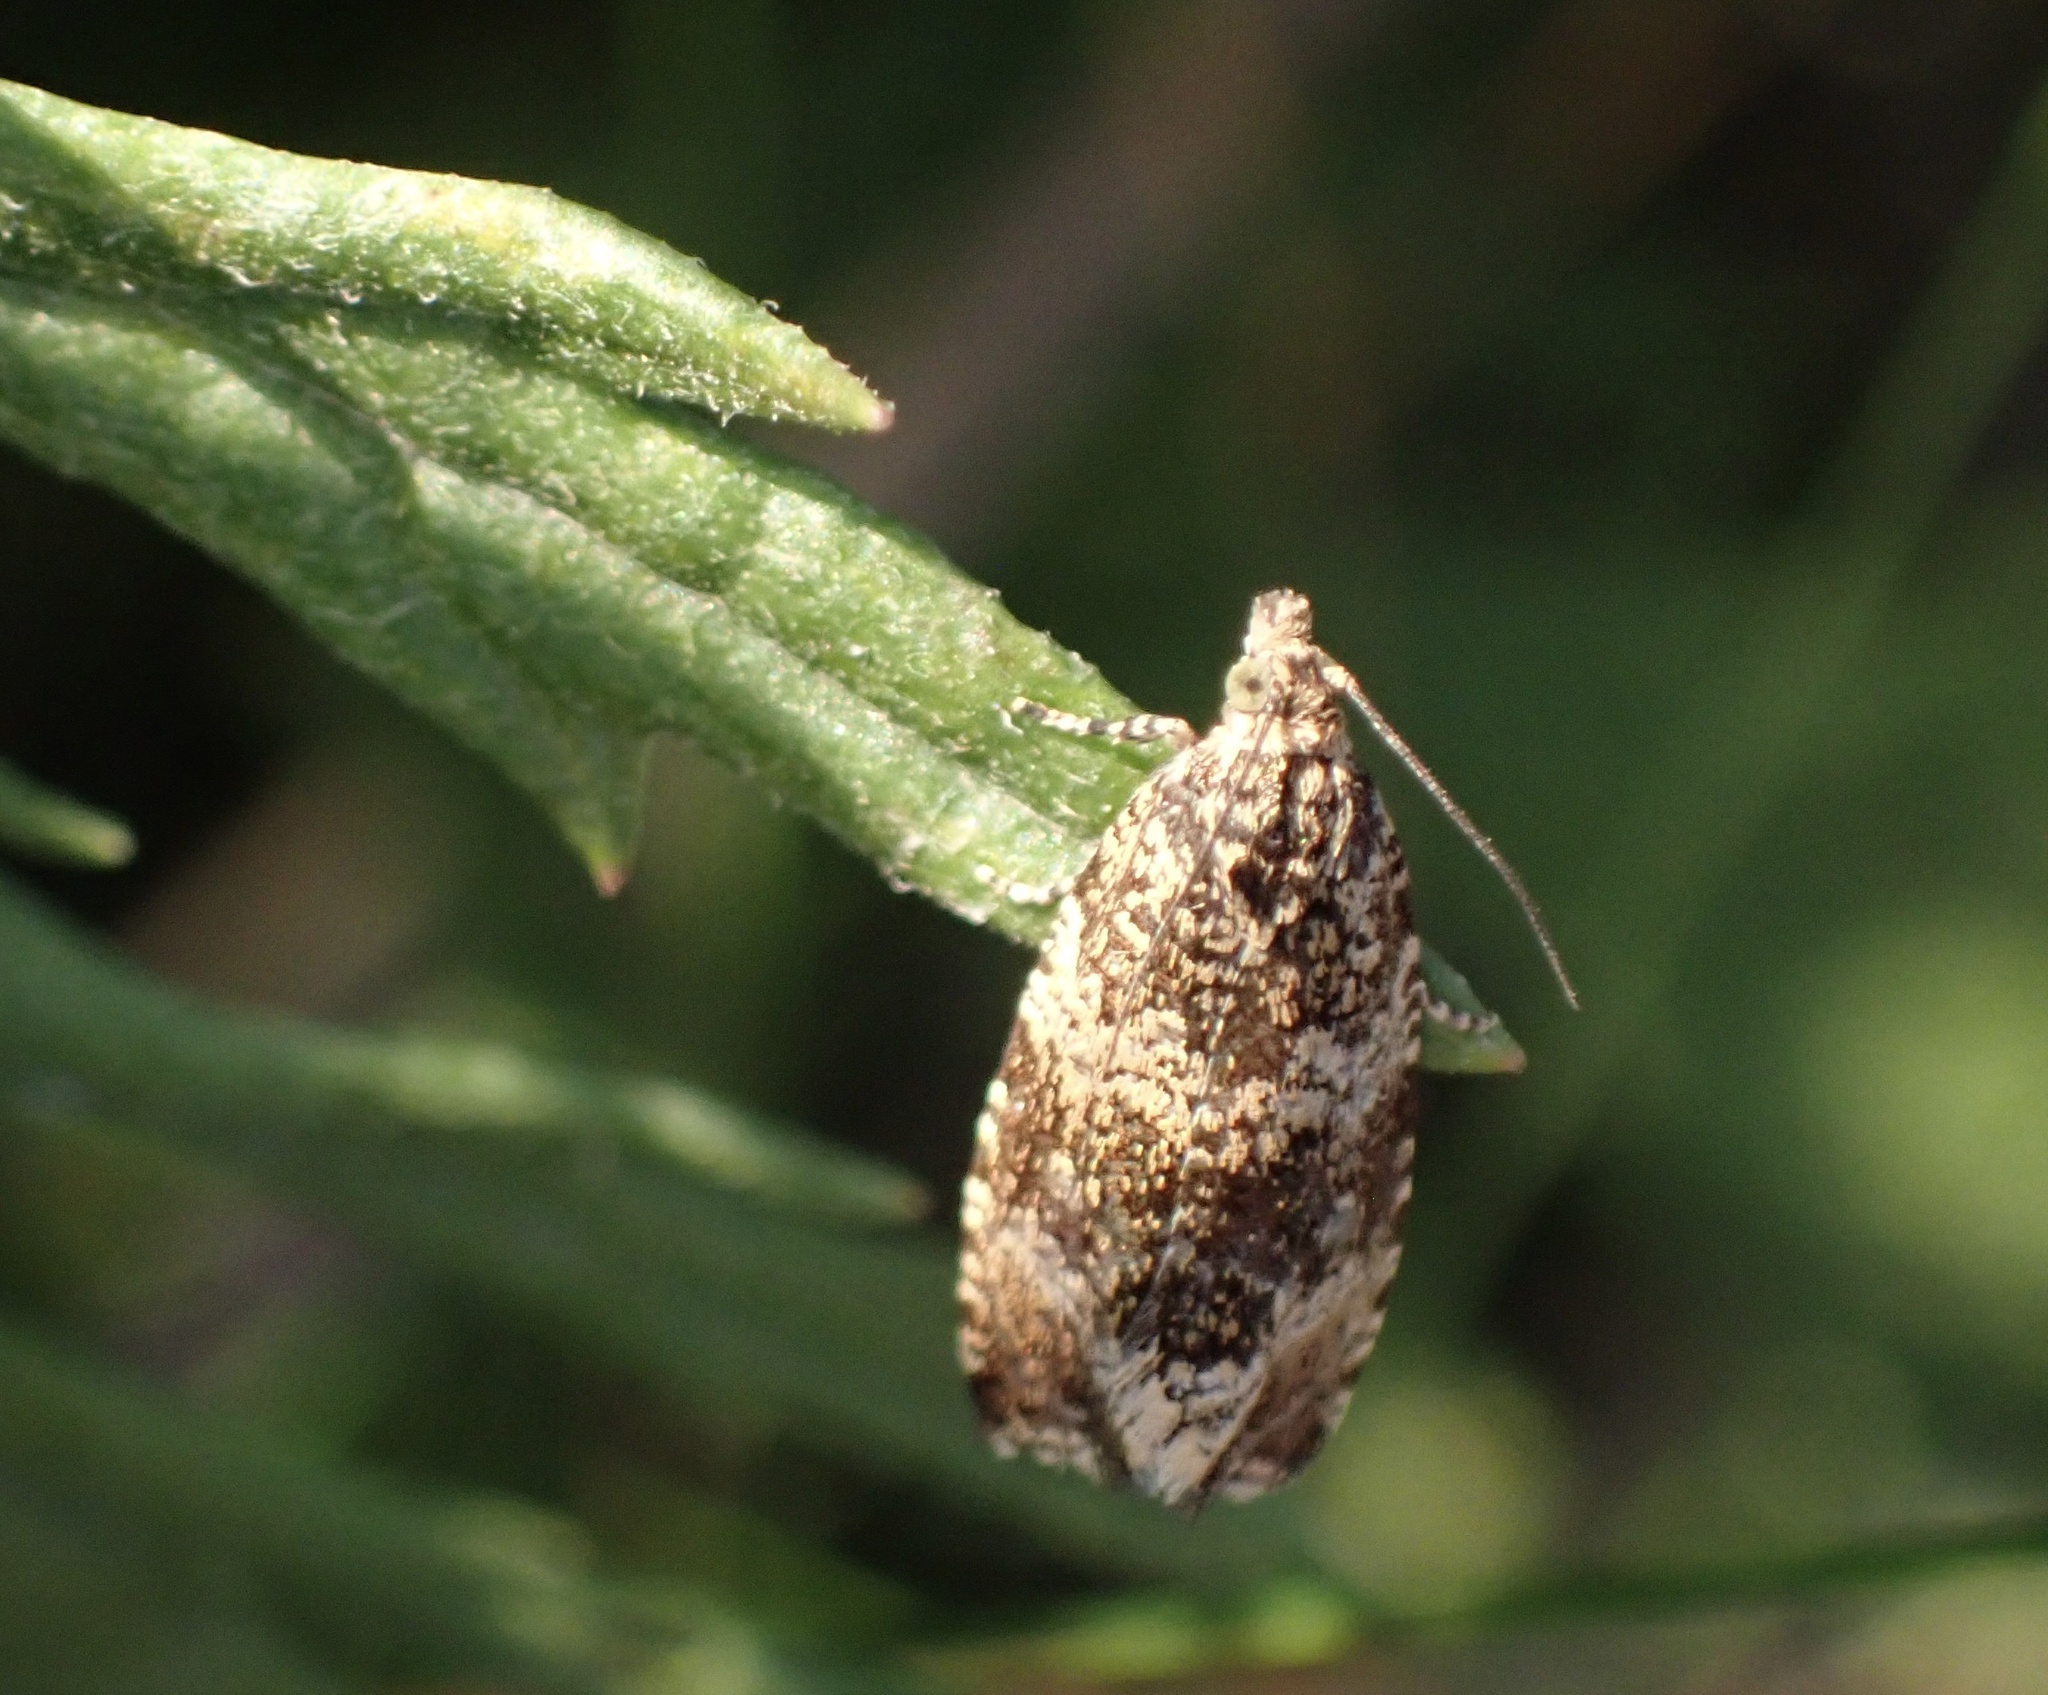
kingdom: Animalia
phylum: Arthropoda
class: Insecta
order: Lepidoptera
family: Tortricidae
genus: Syricoris
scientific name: Syricoris lacunana
